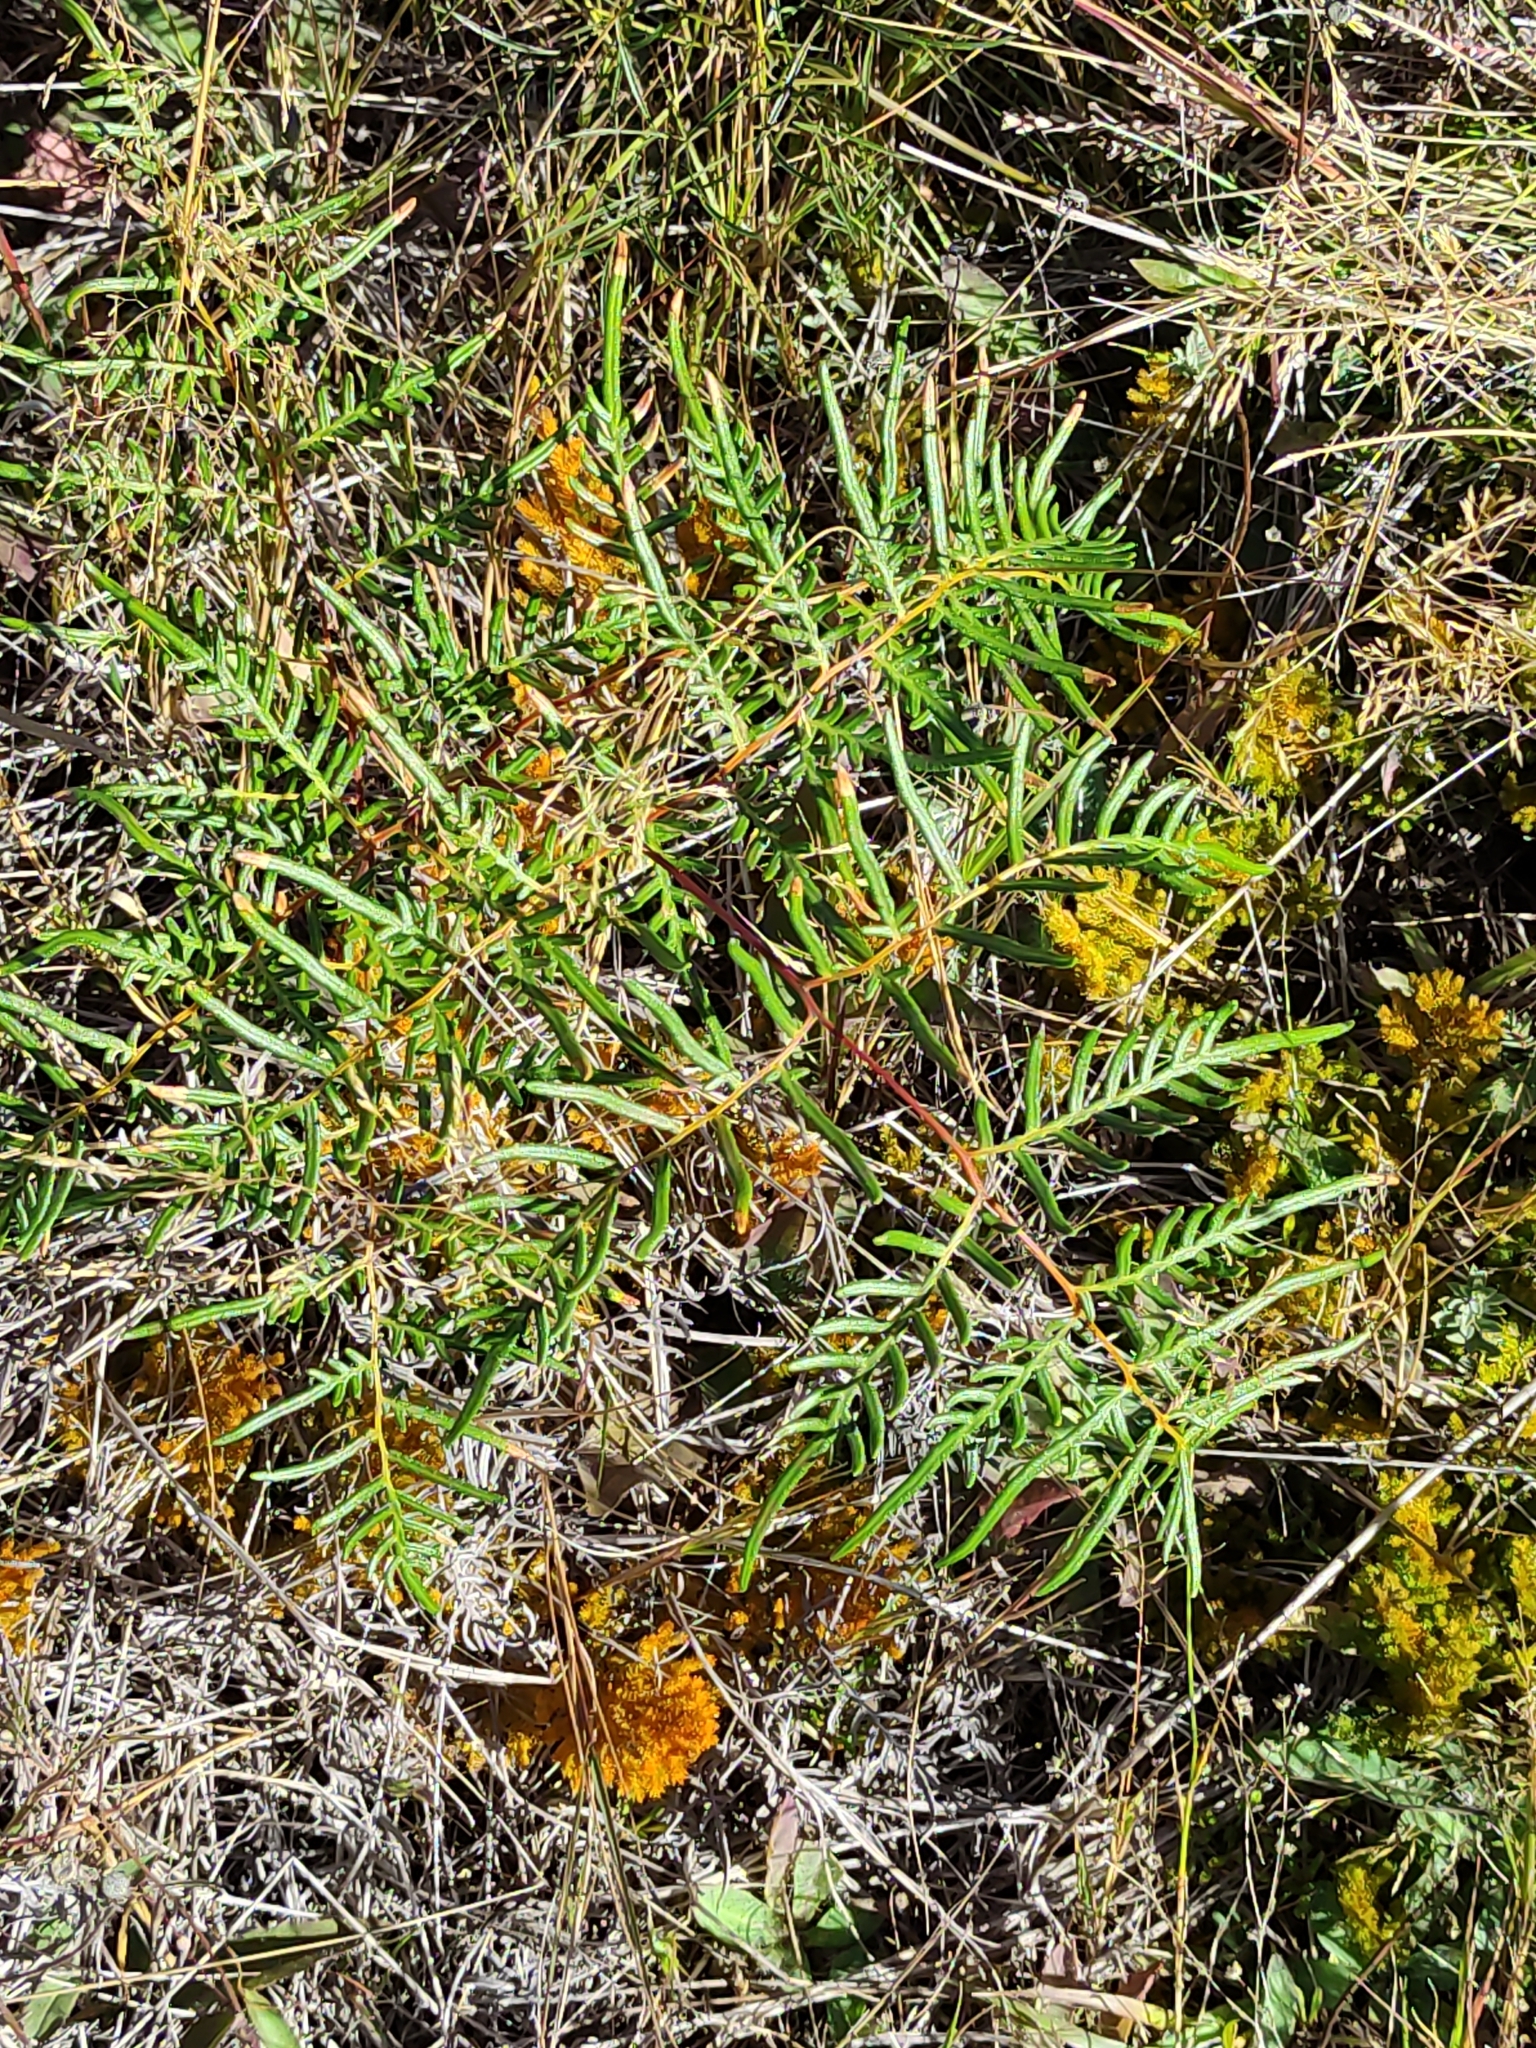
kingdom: Plantae
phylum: Tracheophyta
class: Polypodiopsida
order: Polypodiales
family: Dennstaedtiaceae
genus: Pteridium
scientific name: Pteridium esculentum
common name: Bracken fern
